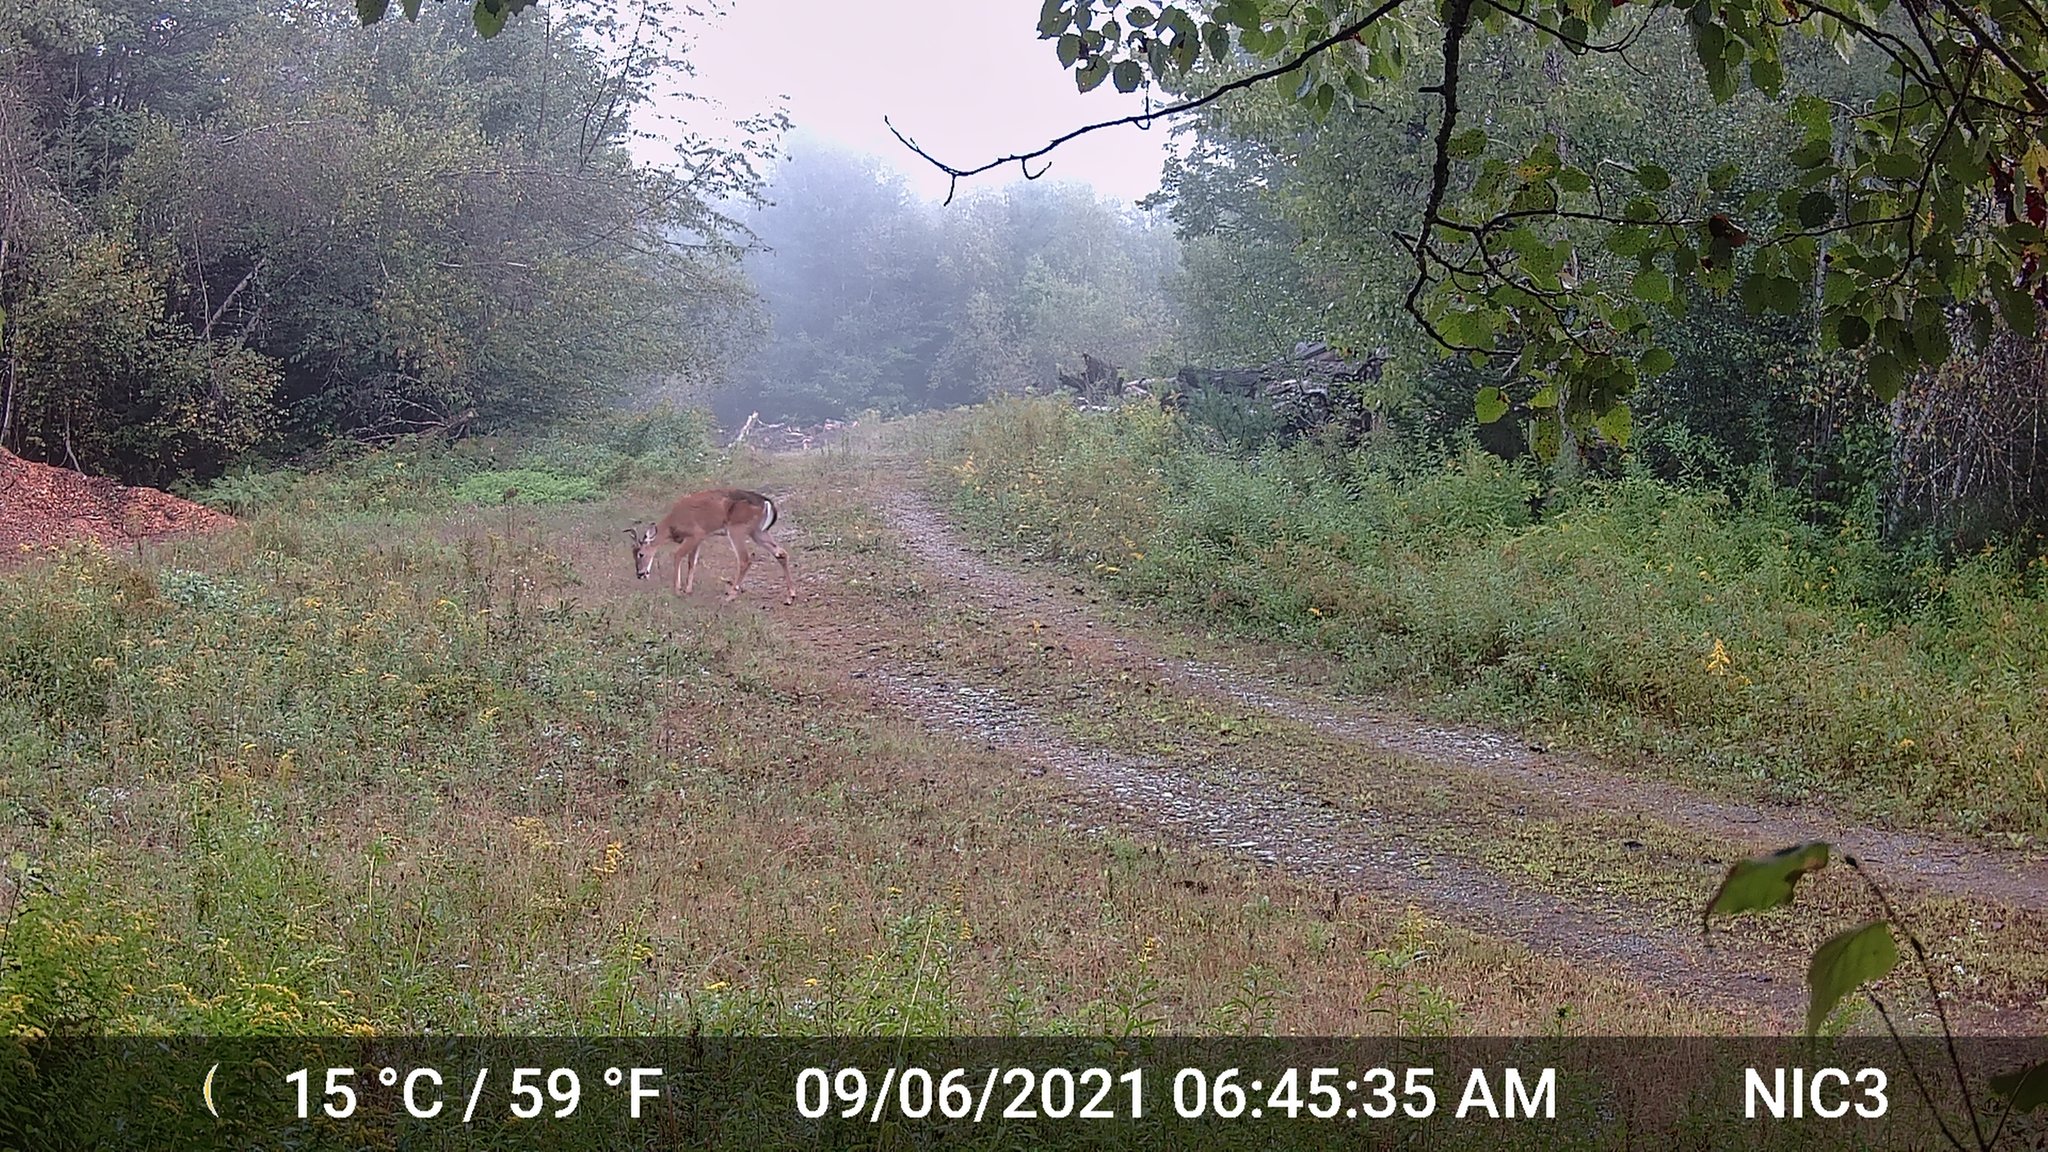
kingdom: Animalia
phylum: Chordata
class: Mammalia
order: Artiodactyla
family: Cervidae
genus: Odocoileus
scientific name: Odocoileus virginianus
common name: White-tailed deer
